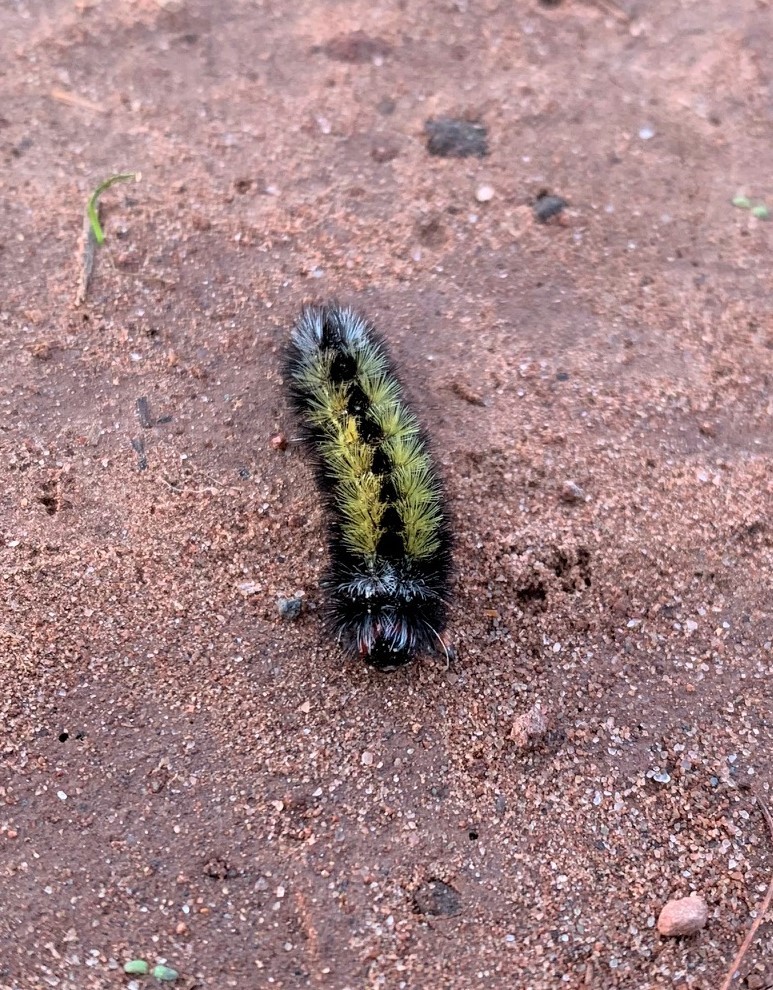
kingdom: Animalia
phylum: Arthropoda
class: Insecta
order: Lepidoptera
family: Erebidae
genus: Ctenucha
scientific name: Ctenucha virginica
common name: Virginia ctenucha moth
